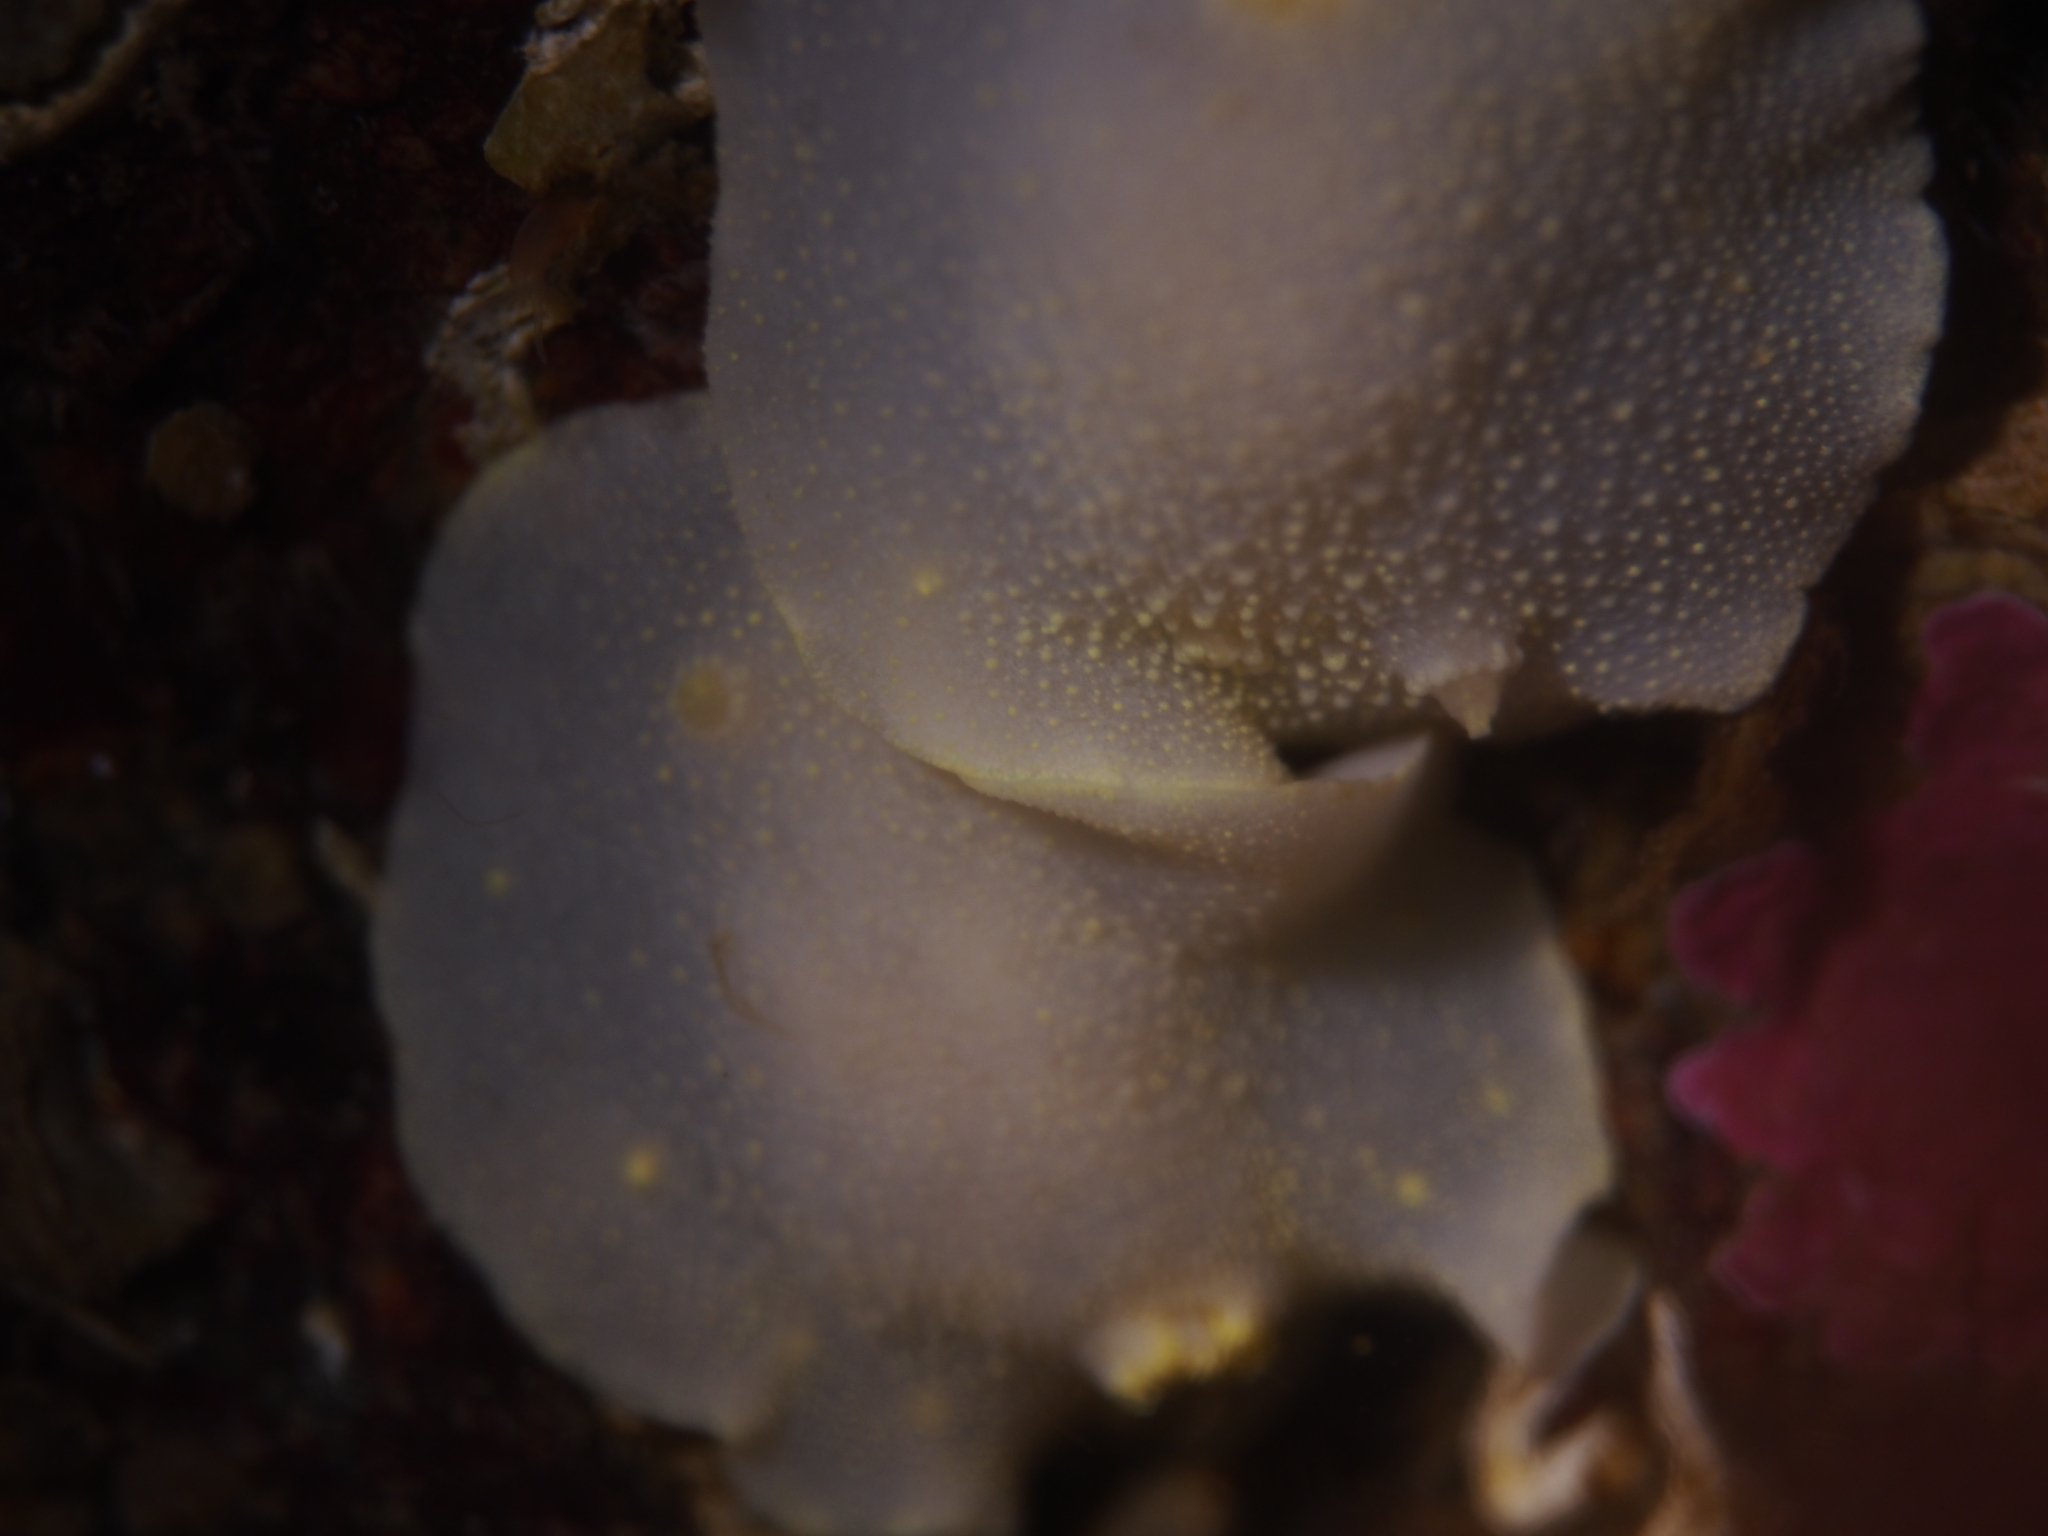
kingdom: Animalia
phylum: Mollusca
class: Gastropoda
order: Nudibranchia
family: Cadlinidae
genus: Cadlina
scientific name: Cadlina laevis
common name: White atlantic cadlina
